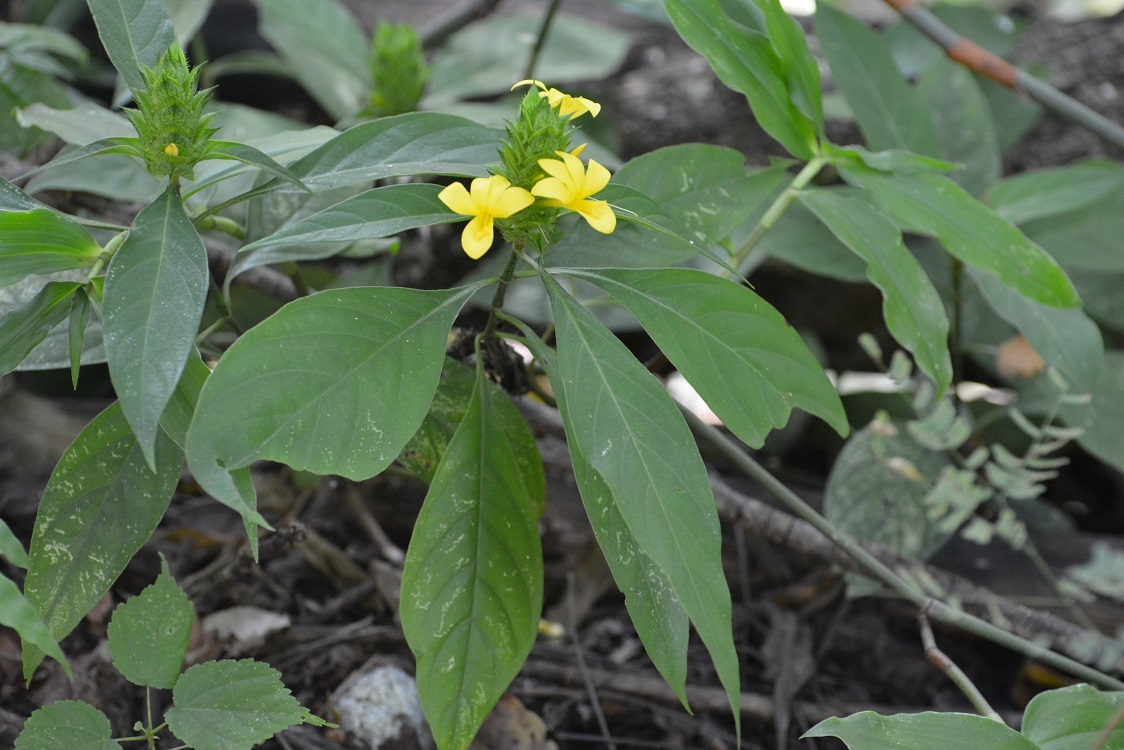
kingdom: Plantae
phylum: Tracheophyta
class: Magnoliopsida
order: Lamiales
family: Acanthaceae
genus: Barleria
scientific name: Barleria oenotheroides
